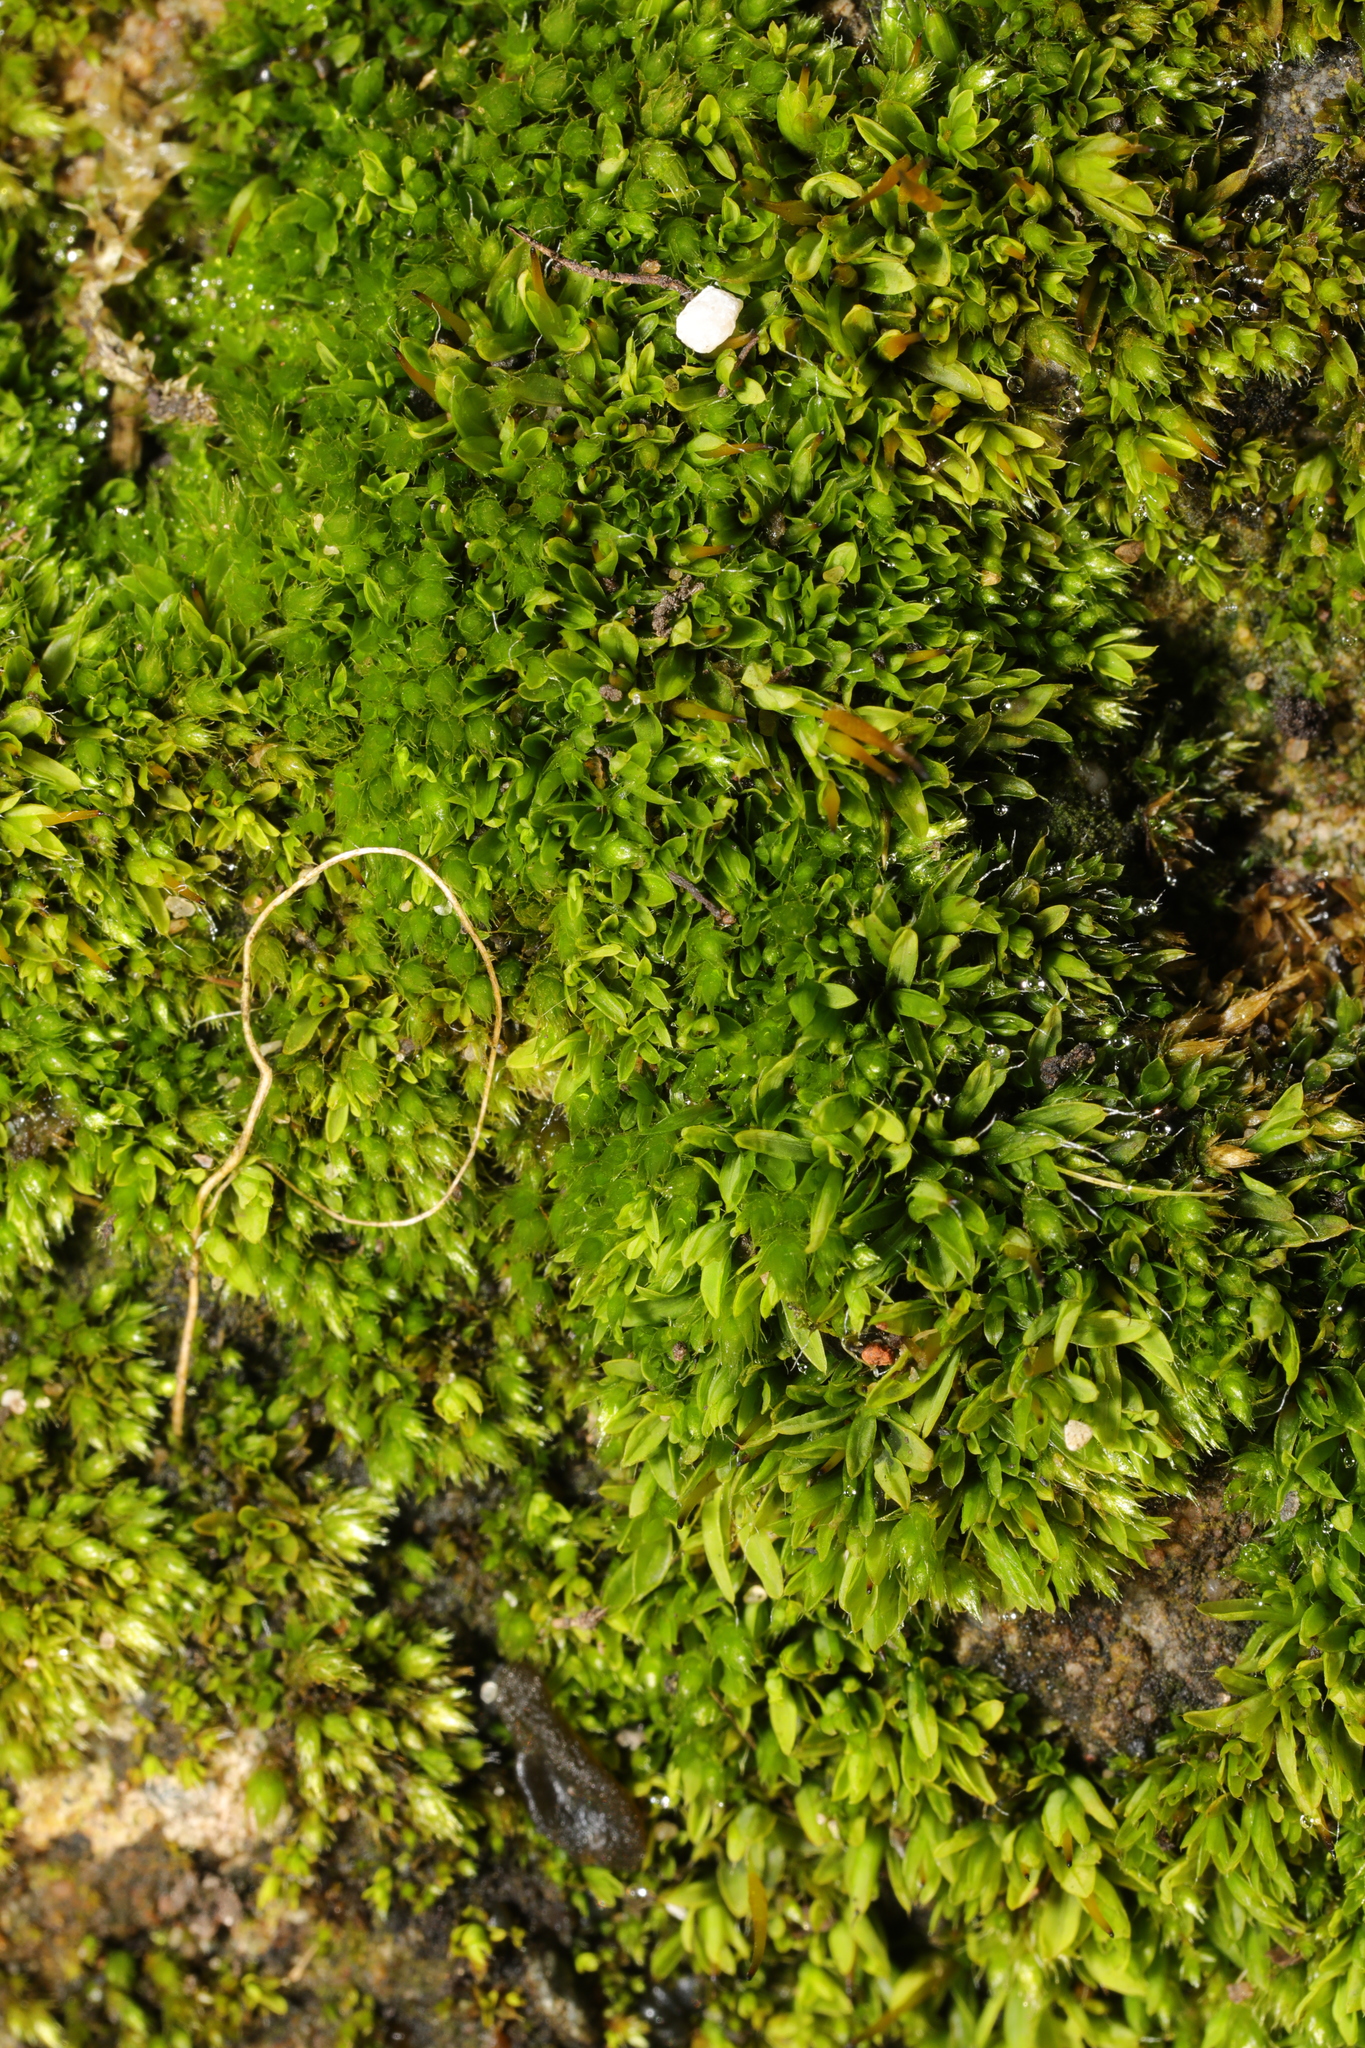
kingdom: Plantae
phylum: Bryophyta
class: Bryopsida
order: Pottiales
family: Pottiaceae
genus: Tortula
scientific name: Tortula muralis
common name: Wall screw-moss
